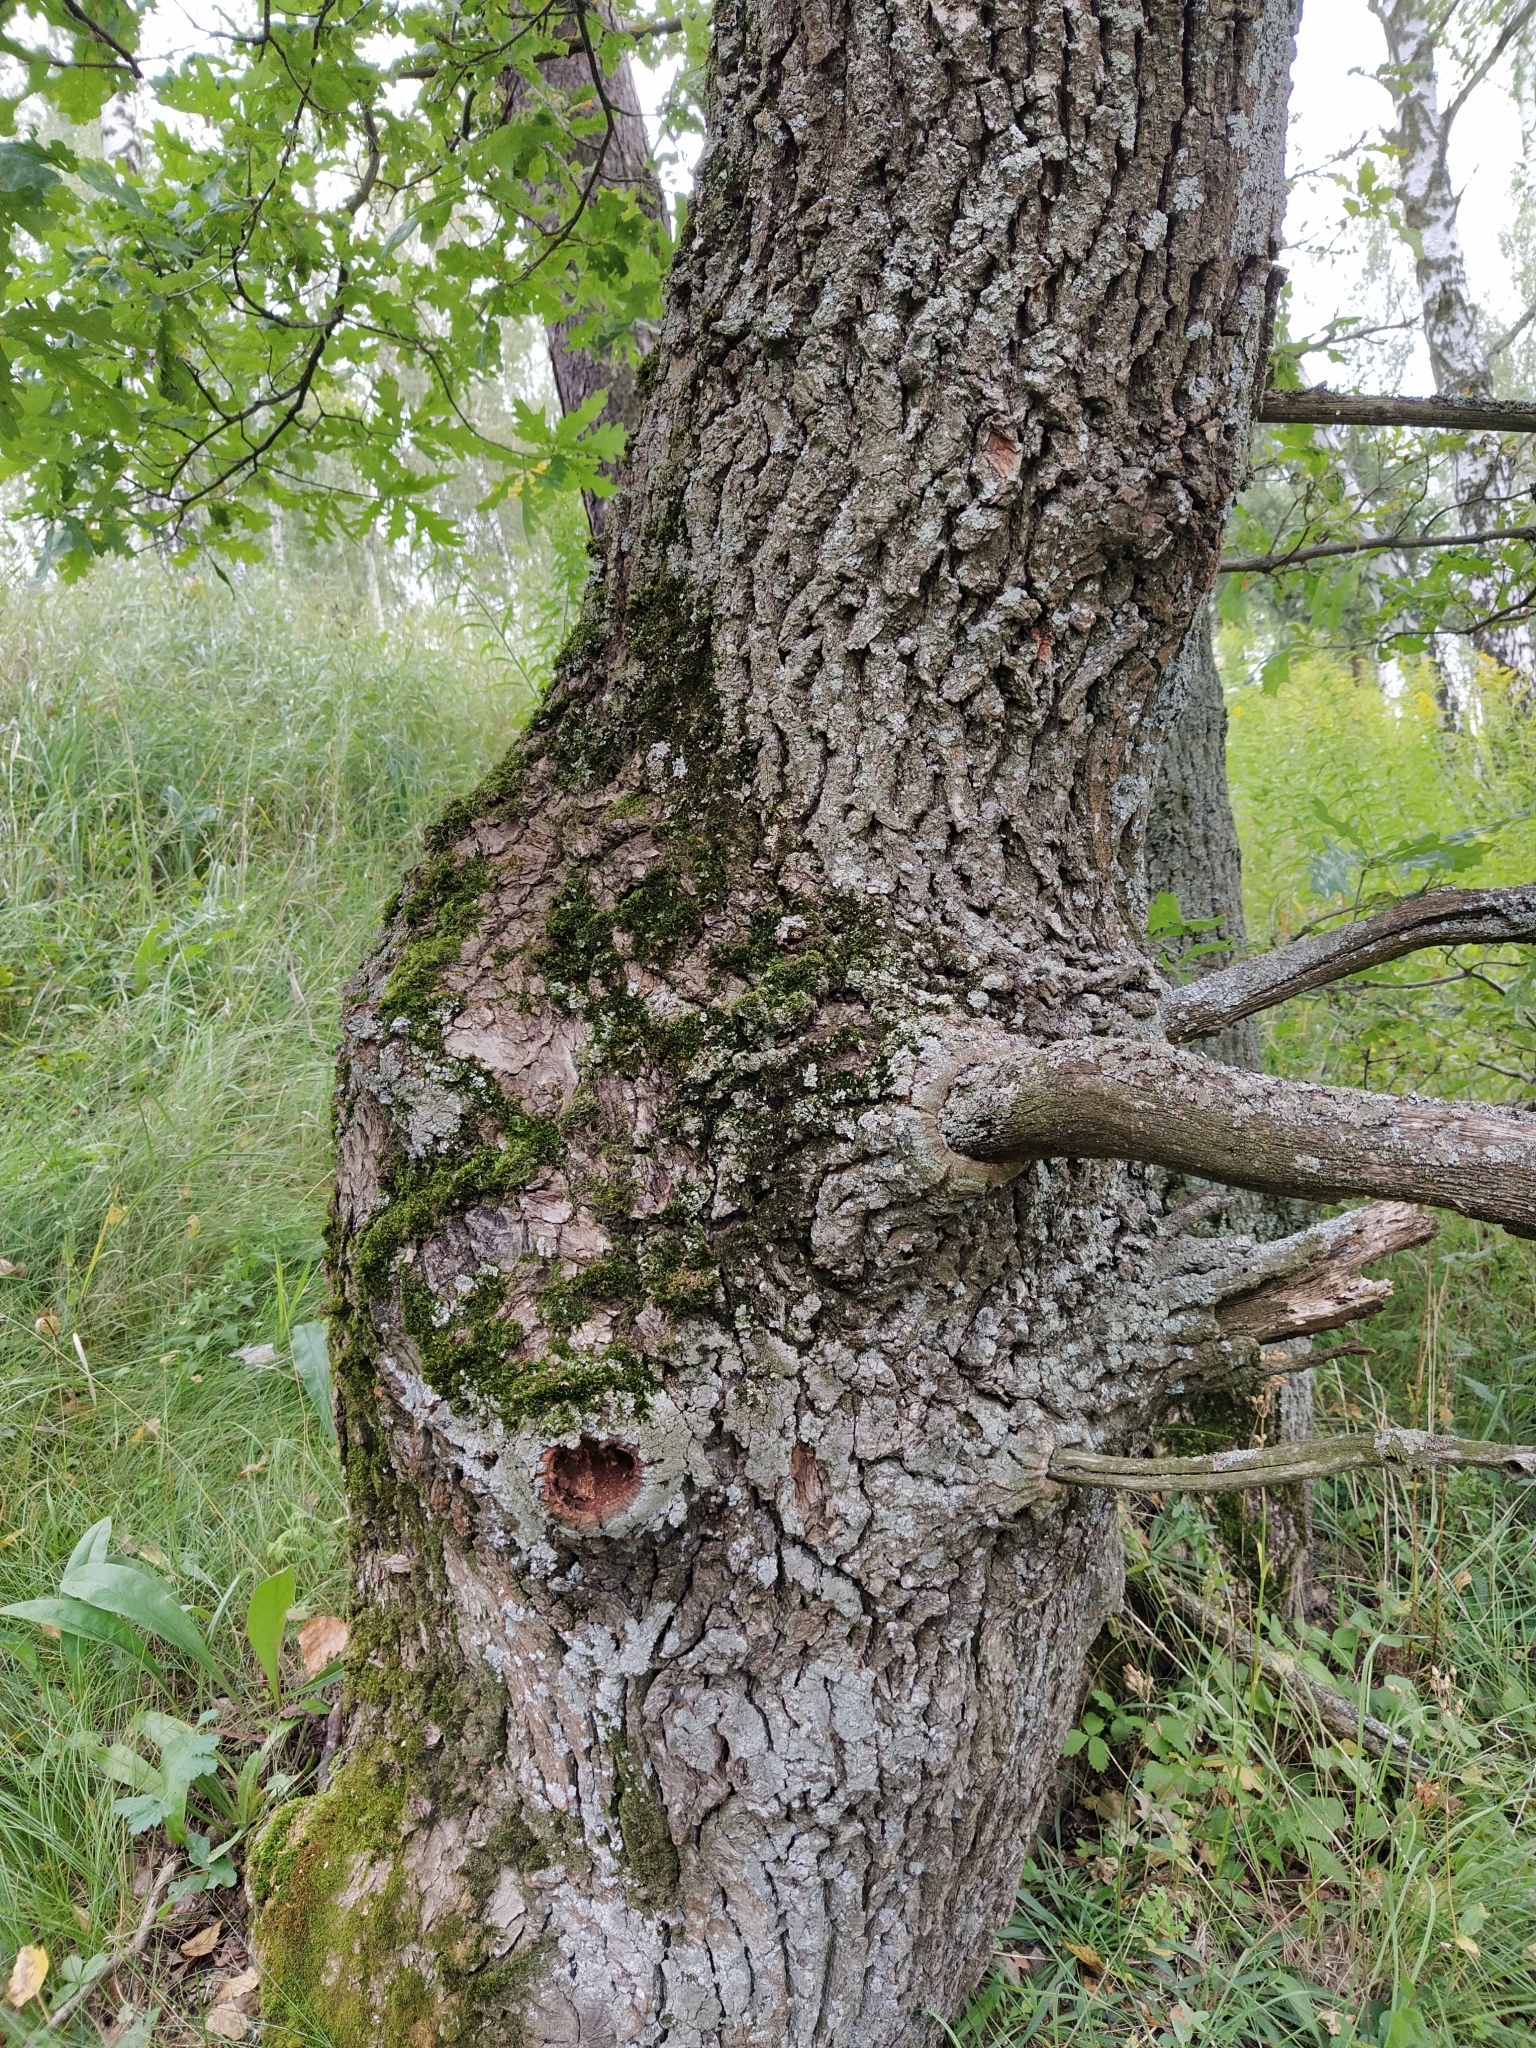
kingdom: Plantae
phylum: Tracheophyta
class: Magnoliopsida
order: Fagales
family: Fagaceae
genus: Quercus
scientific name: Quercus robur
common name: Pedunculate oak
